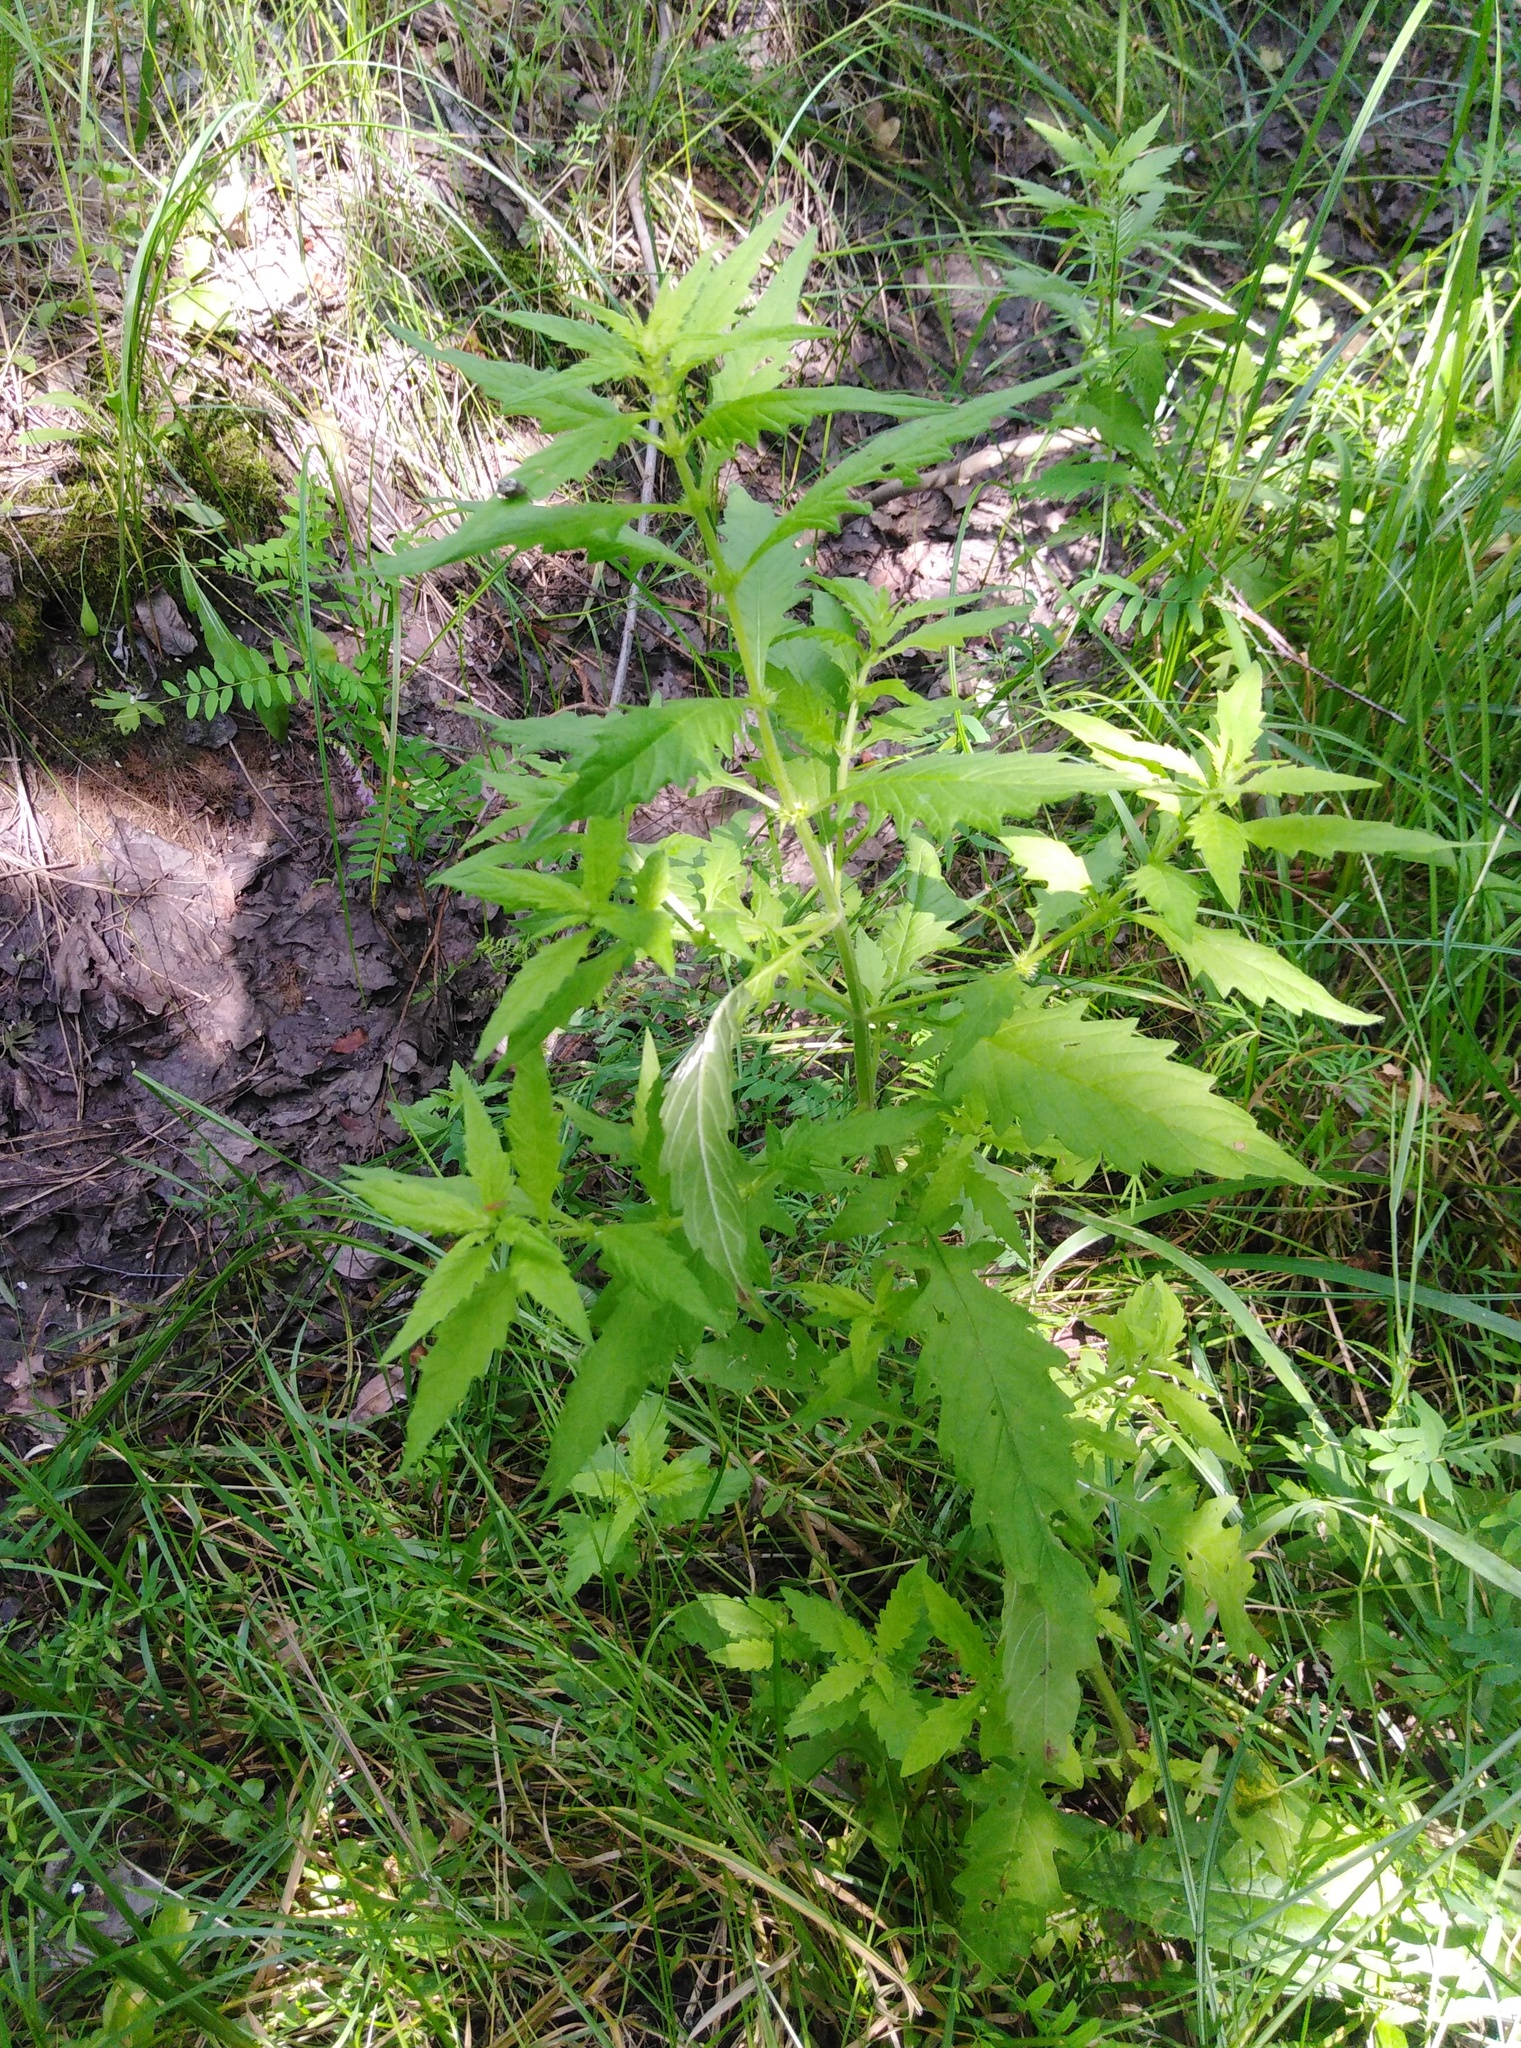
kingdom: Plantae
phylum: Tracheophyta
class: Magnoliopsida
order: Lamiales
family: Lamiaceae
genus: Lycopus
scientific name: Lycopus europaeus
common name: European bugleweed
